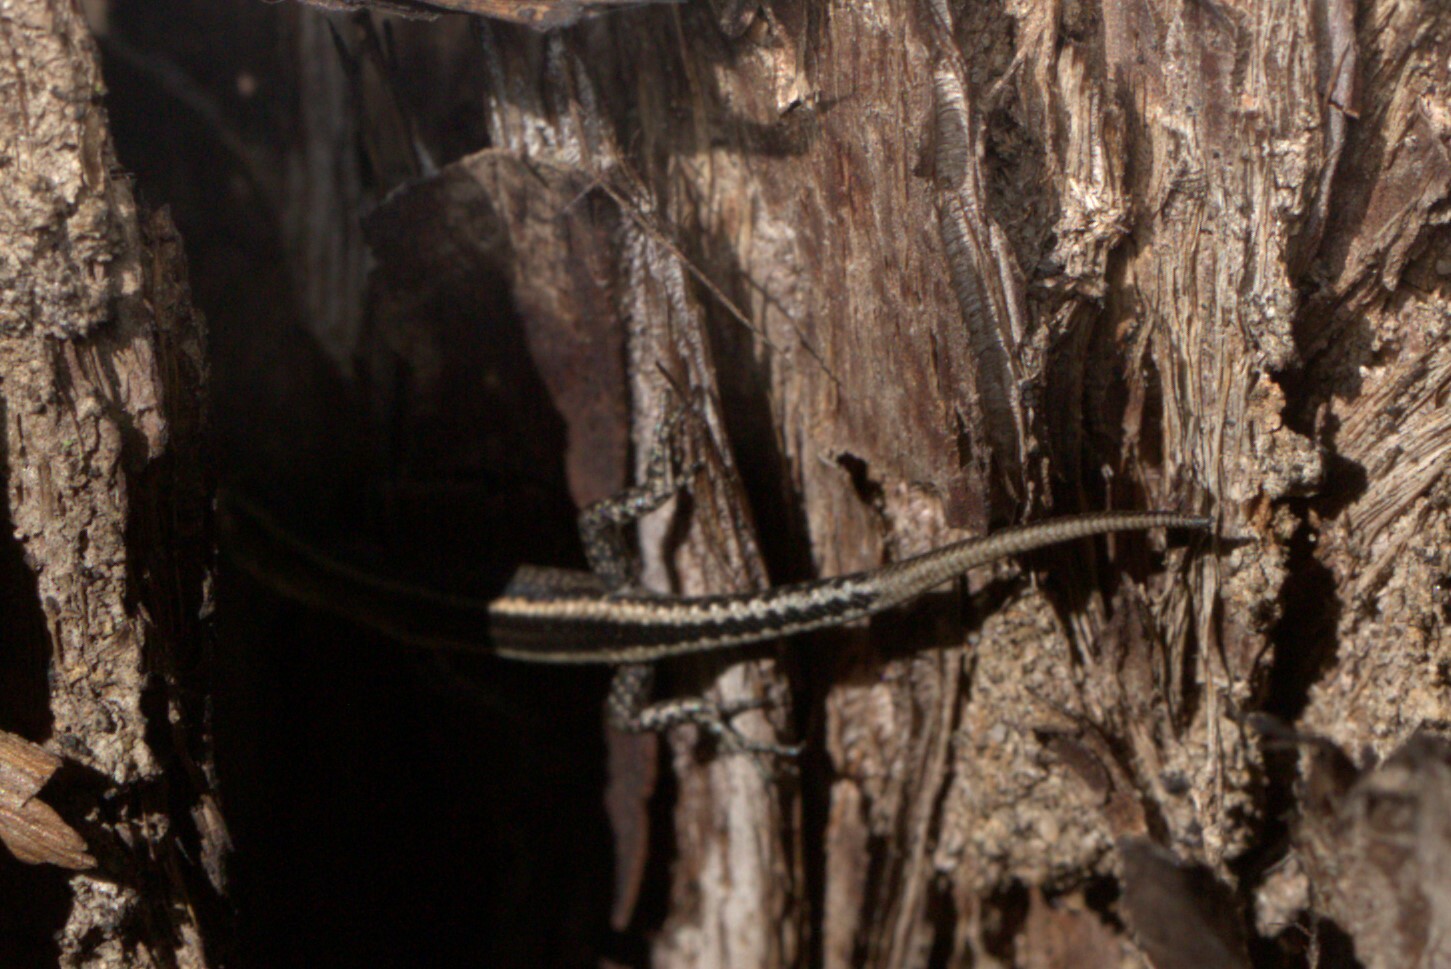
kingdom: Animalia
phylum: Chordata
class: Squamata
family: Scincidae
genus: Cryptoblepharus
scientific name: Cryptoblepharus pulcher
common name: Elegant snake-eyed skink
